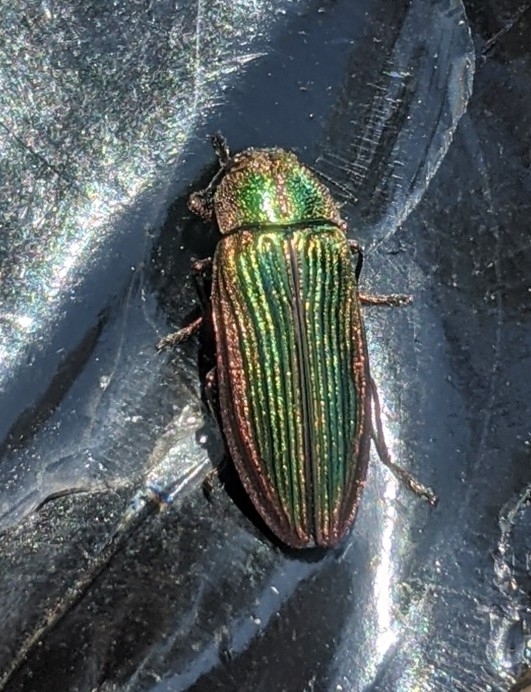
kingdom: Animalia
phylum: Arthropoda
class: Insecta
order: Coleoptera
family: Buprestidae
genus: Buprestis
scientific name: Buprestis intricata
